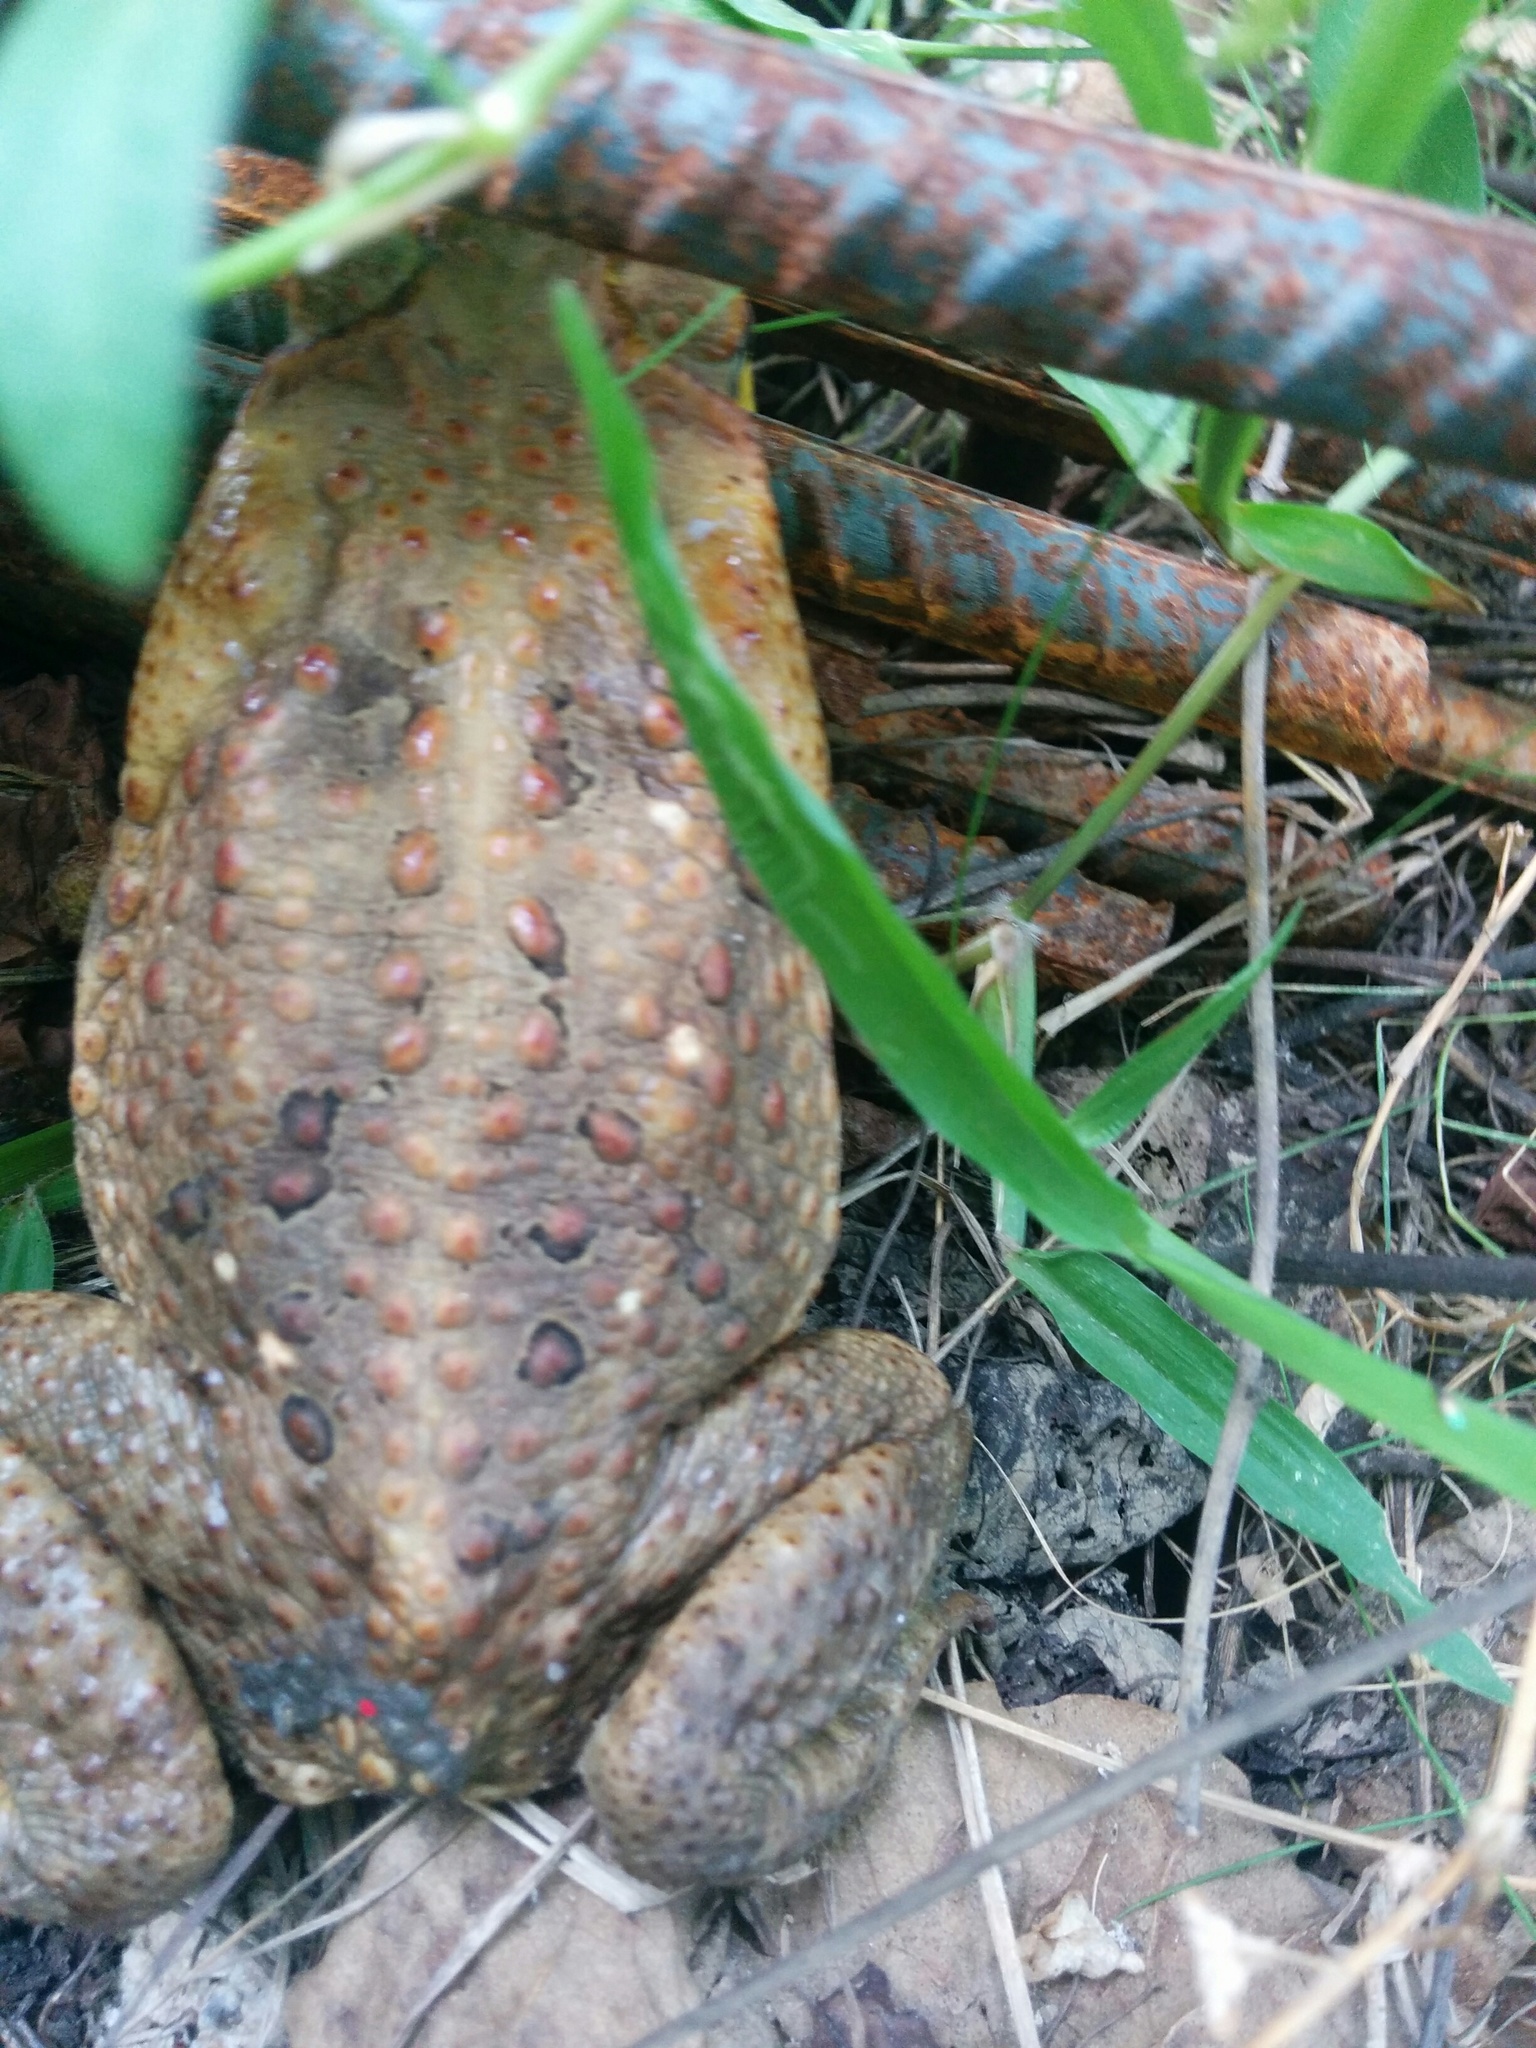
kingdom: Animalia
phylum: Chordata
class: Amphibia
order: Anura
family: Bufonidae
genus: Rhinella
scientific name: Rhinella marina
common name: Cane toad
